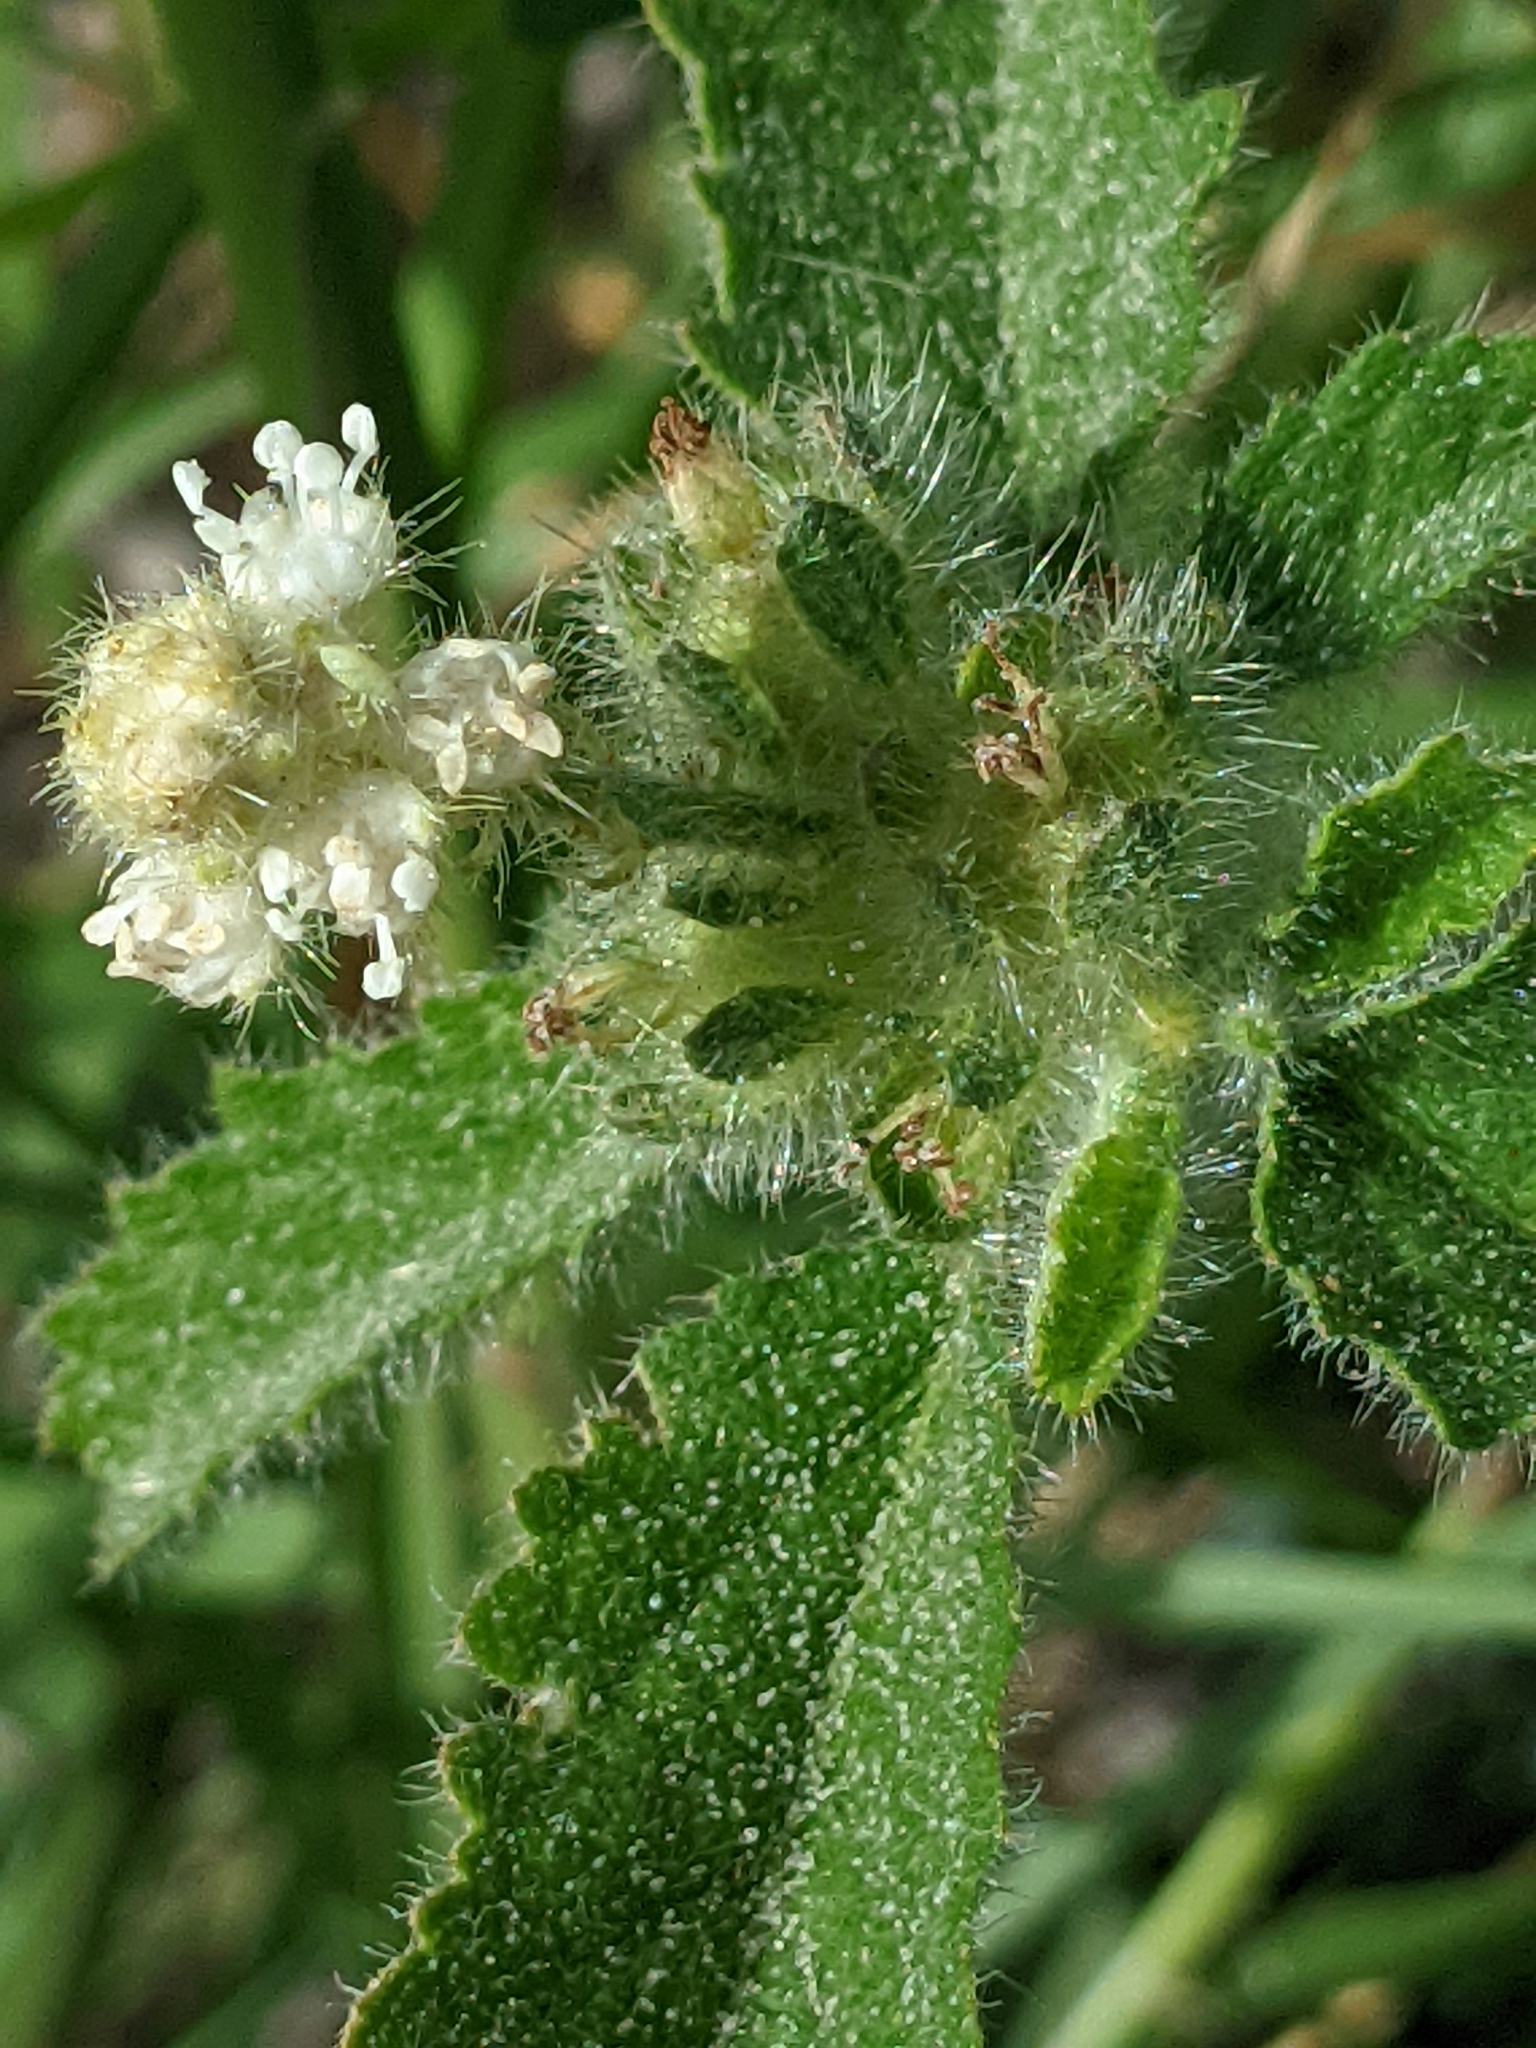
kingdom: Plantae
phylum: Tracheophyta
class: Magnoliopsida
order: Malpighiales
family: Euphorbiaceae
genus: Croton
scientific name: Croton glandulosus
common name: Tropic croton
